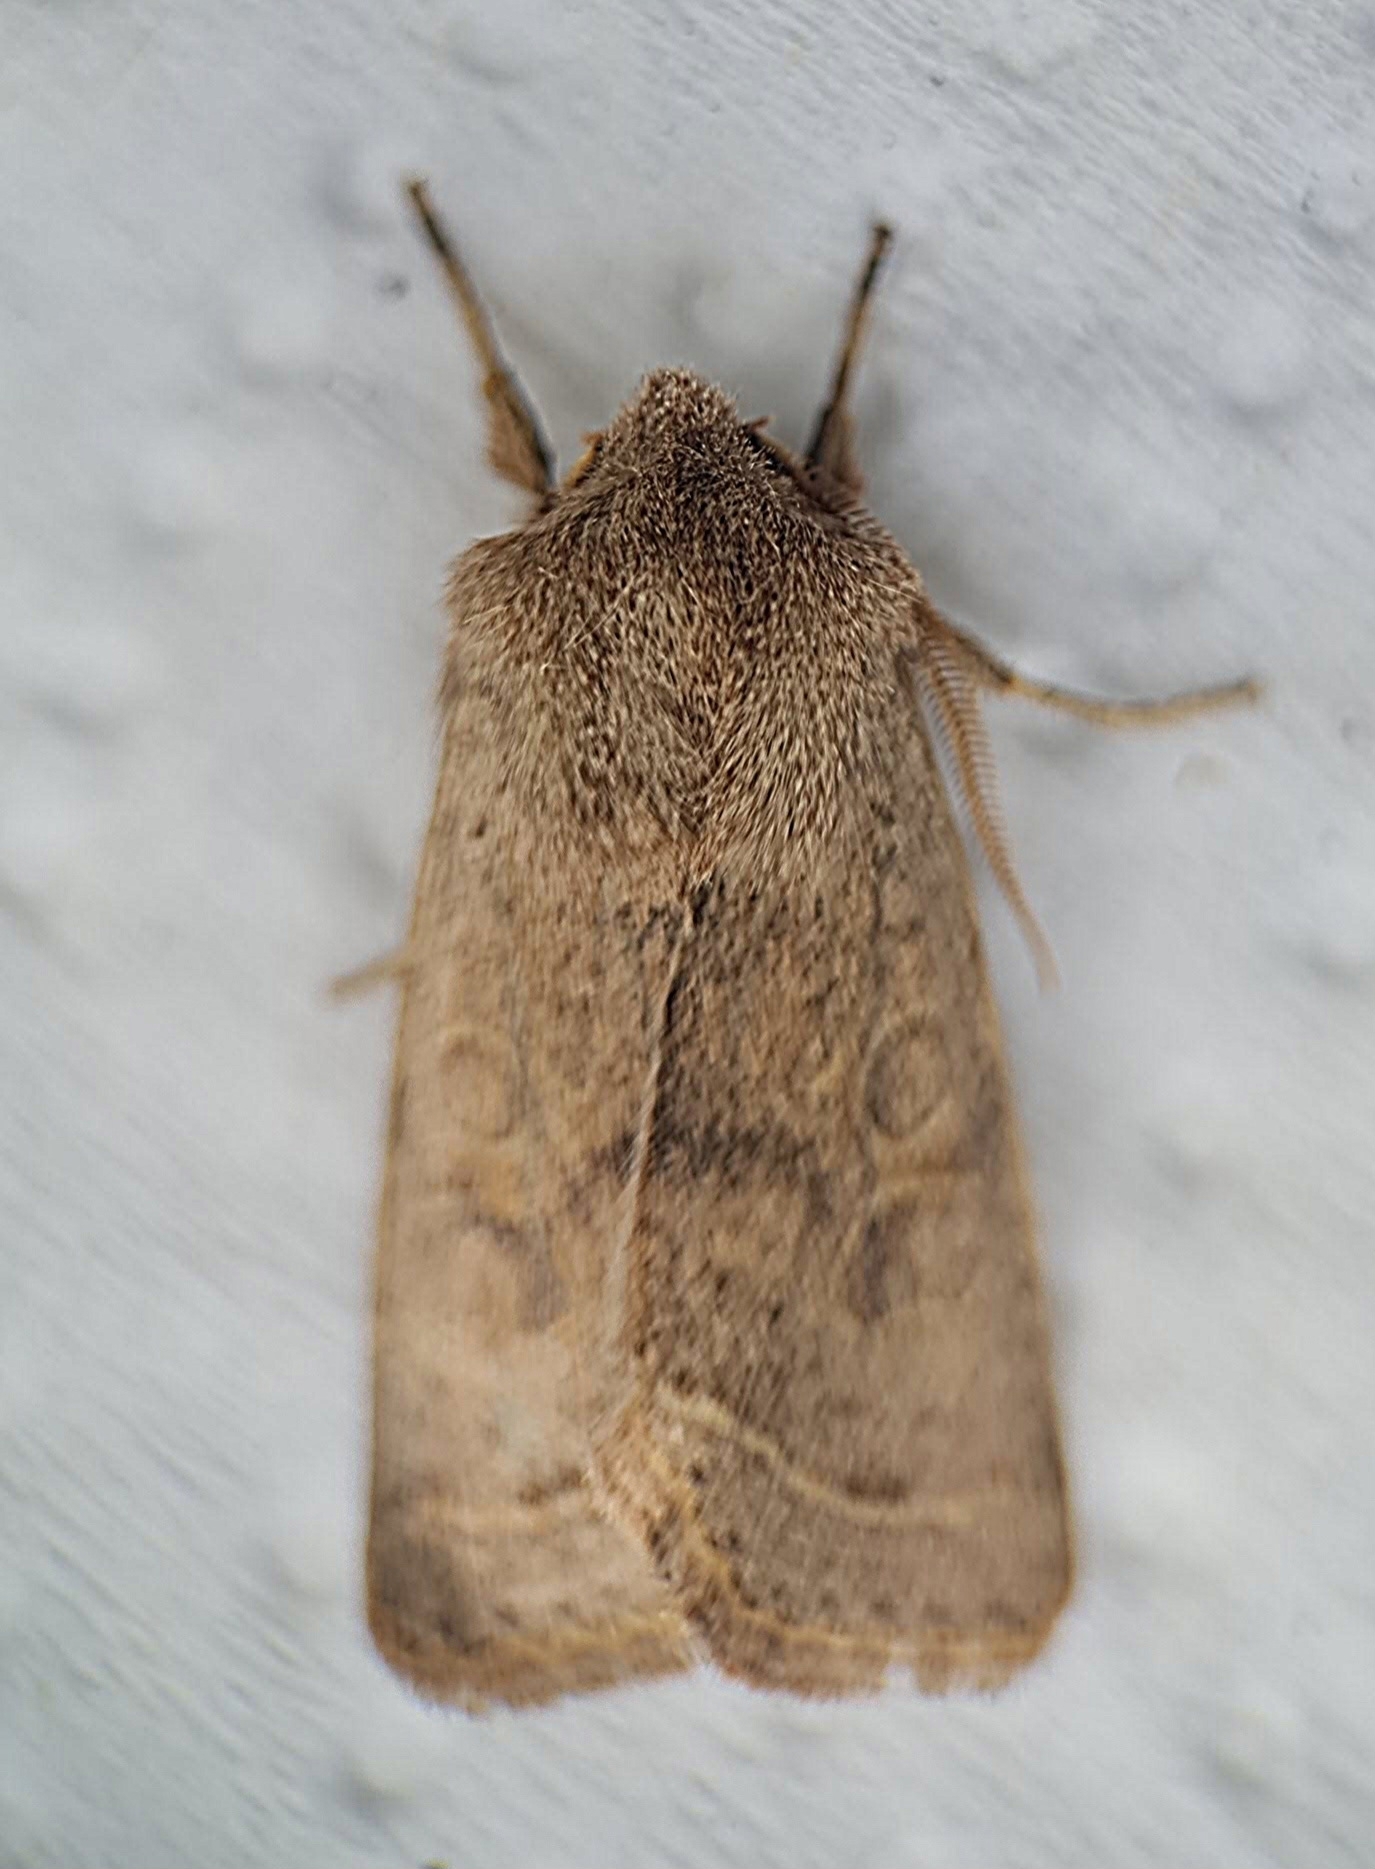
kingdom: Animalia
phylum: Arthropoda
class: Insecta
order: Lepidoptera
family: Noctuidae
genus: Orthosia
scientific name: Orthosia cerasi
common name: Common quaker
